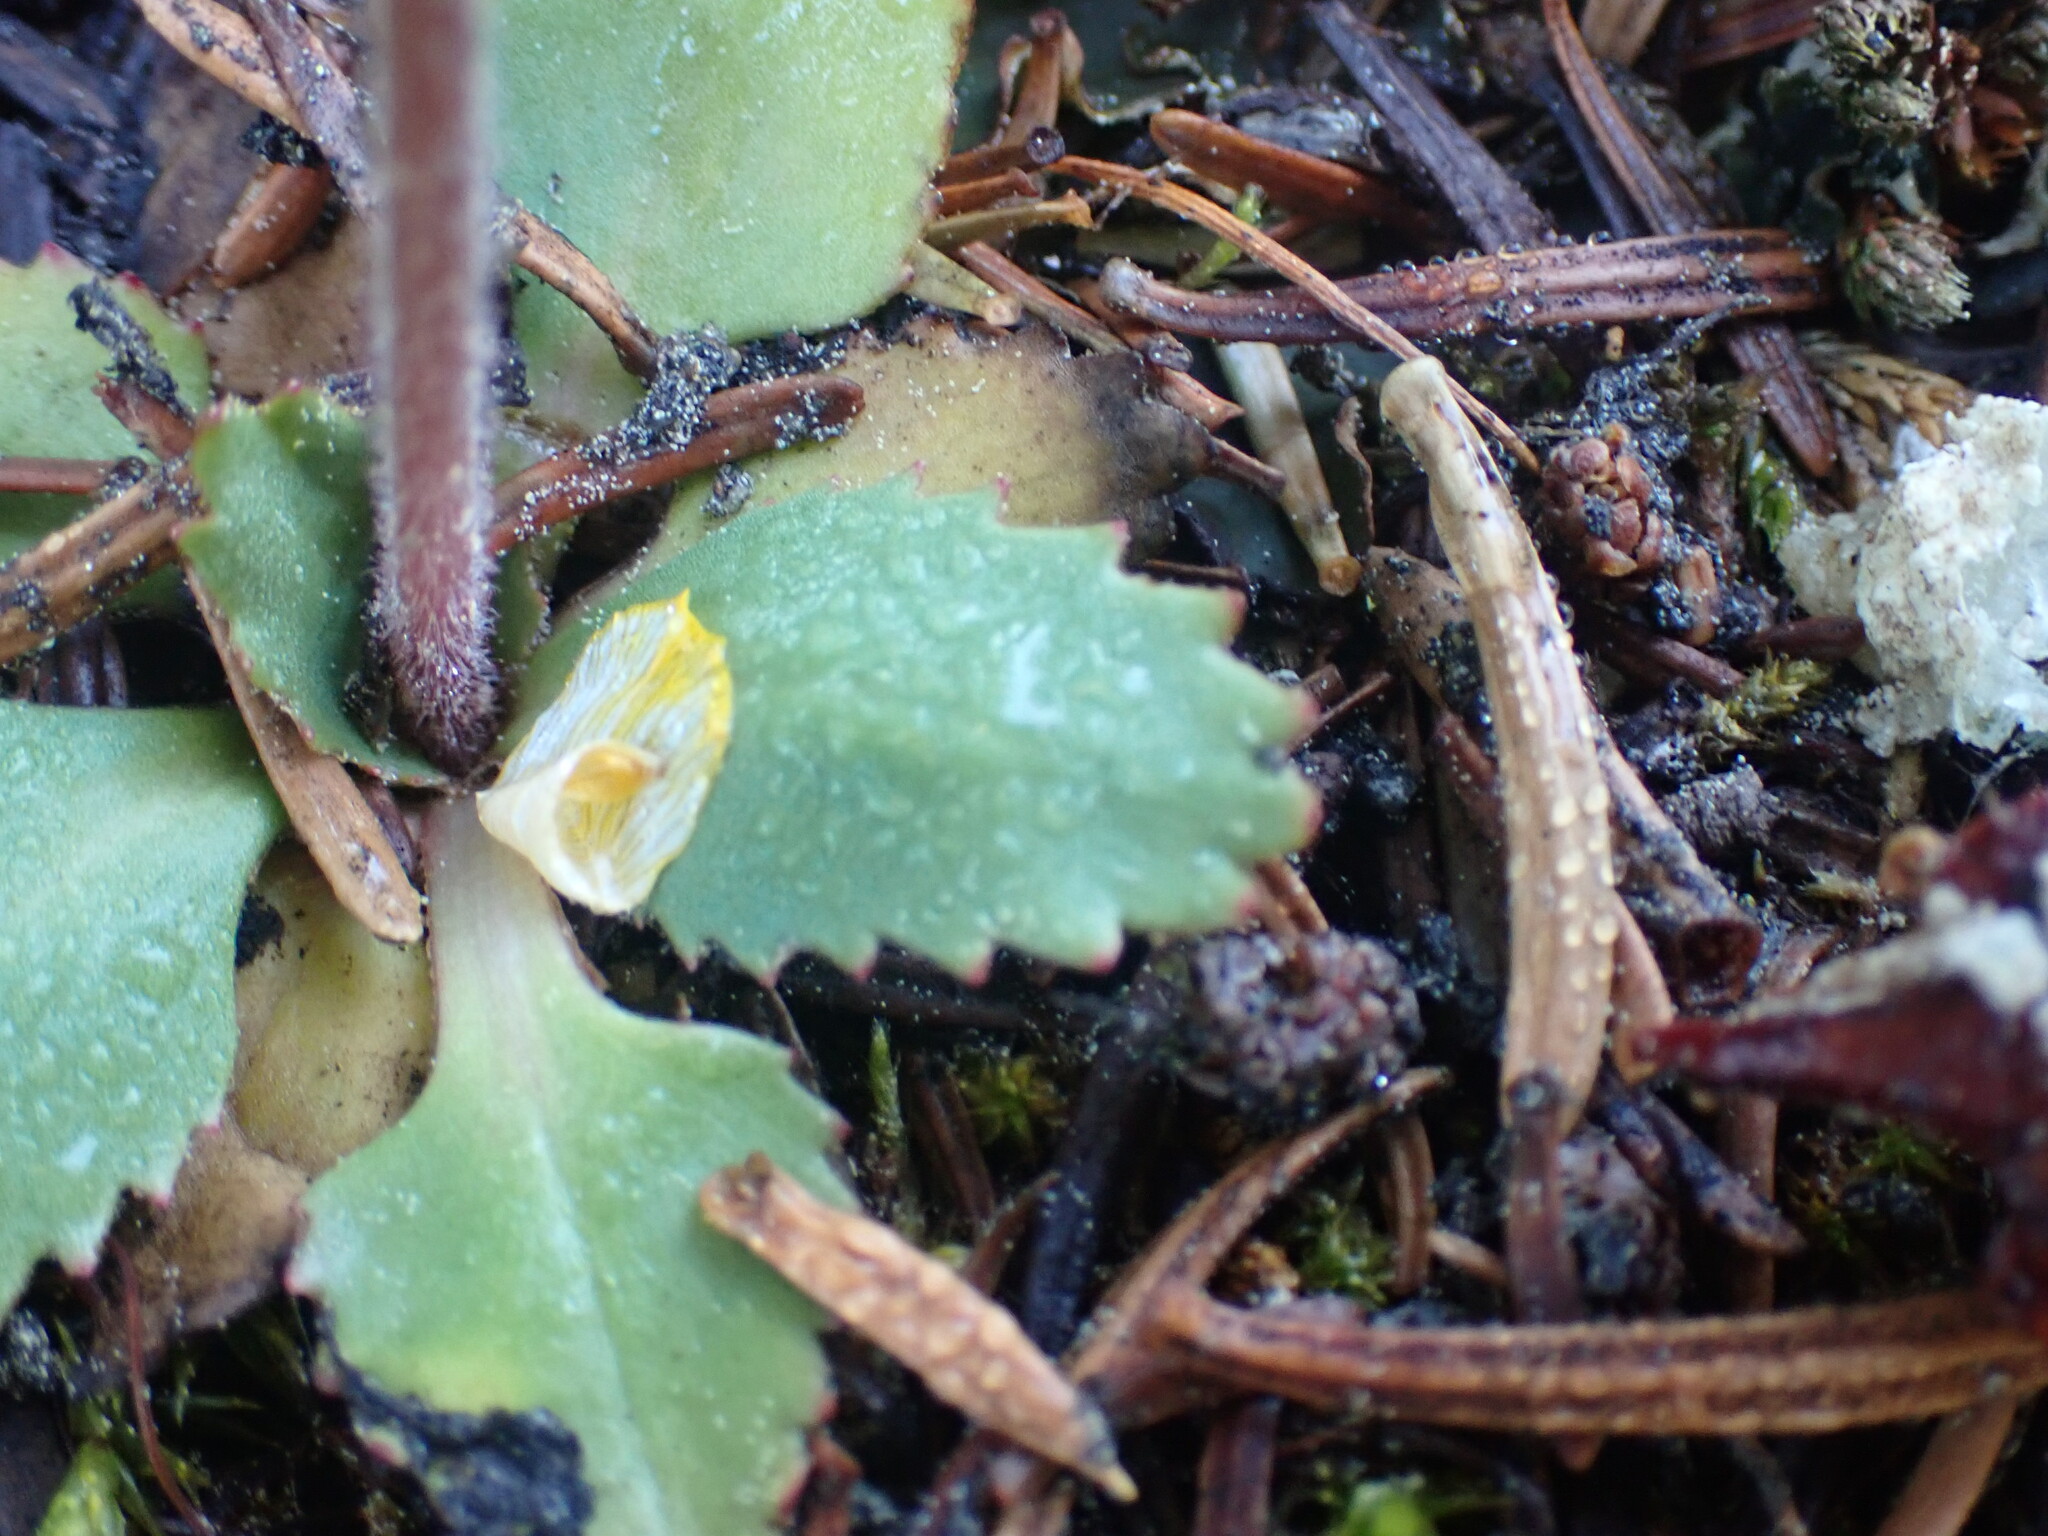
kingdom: Plantae
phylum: Tracheophyta
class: Magnoliopsida
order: Saxifragales
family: Saxifragaceae
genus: Micranthes
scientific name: Micranthes occidentalis
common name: Alberta saxifrage
